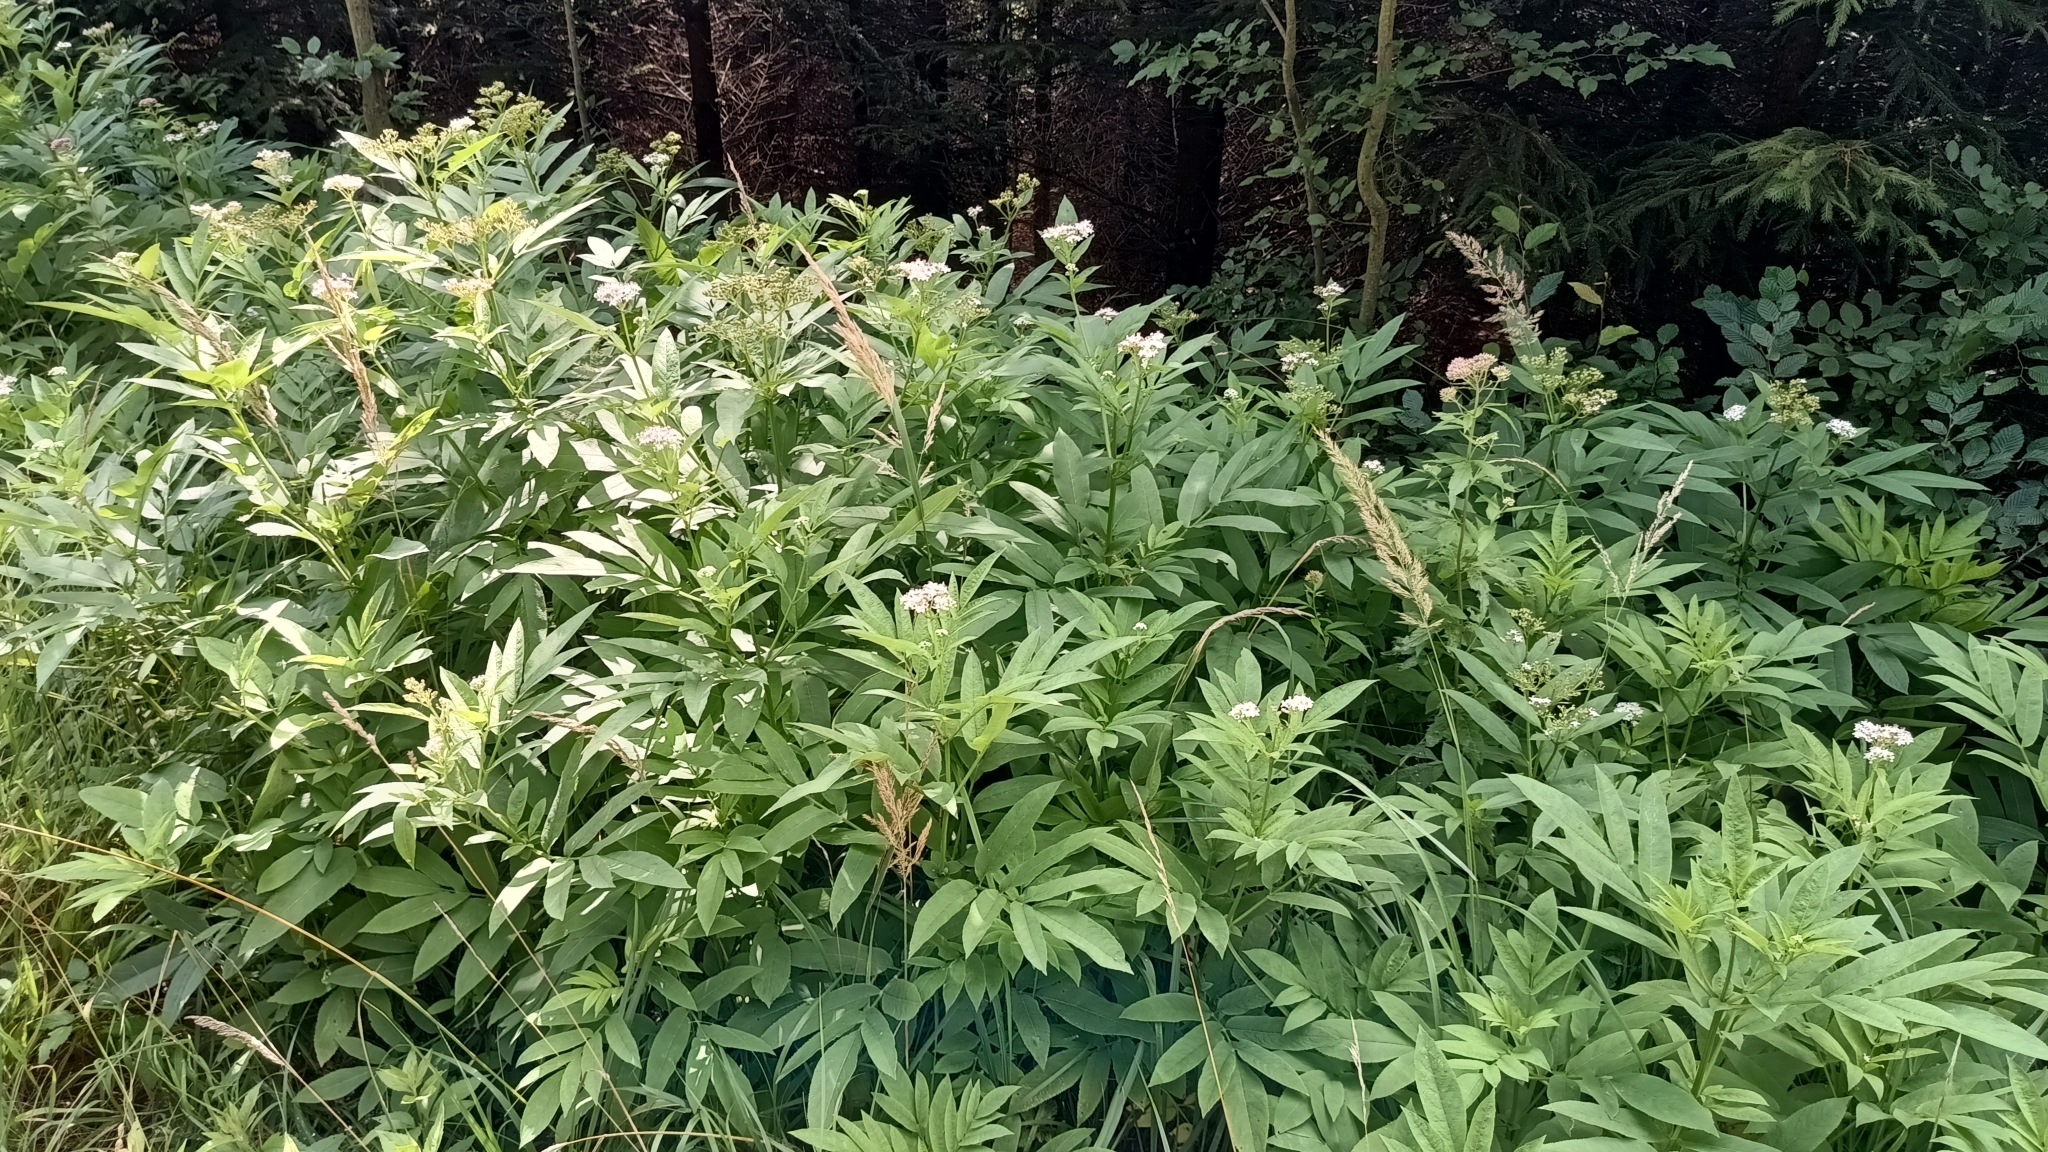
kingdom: Plantae
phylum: Tracheophyta
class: Magnoliopsida
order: Dipsacales
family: Viburnaceae
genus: Sambucus
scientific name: Sambucus ebulus
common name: Dwarf elder
